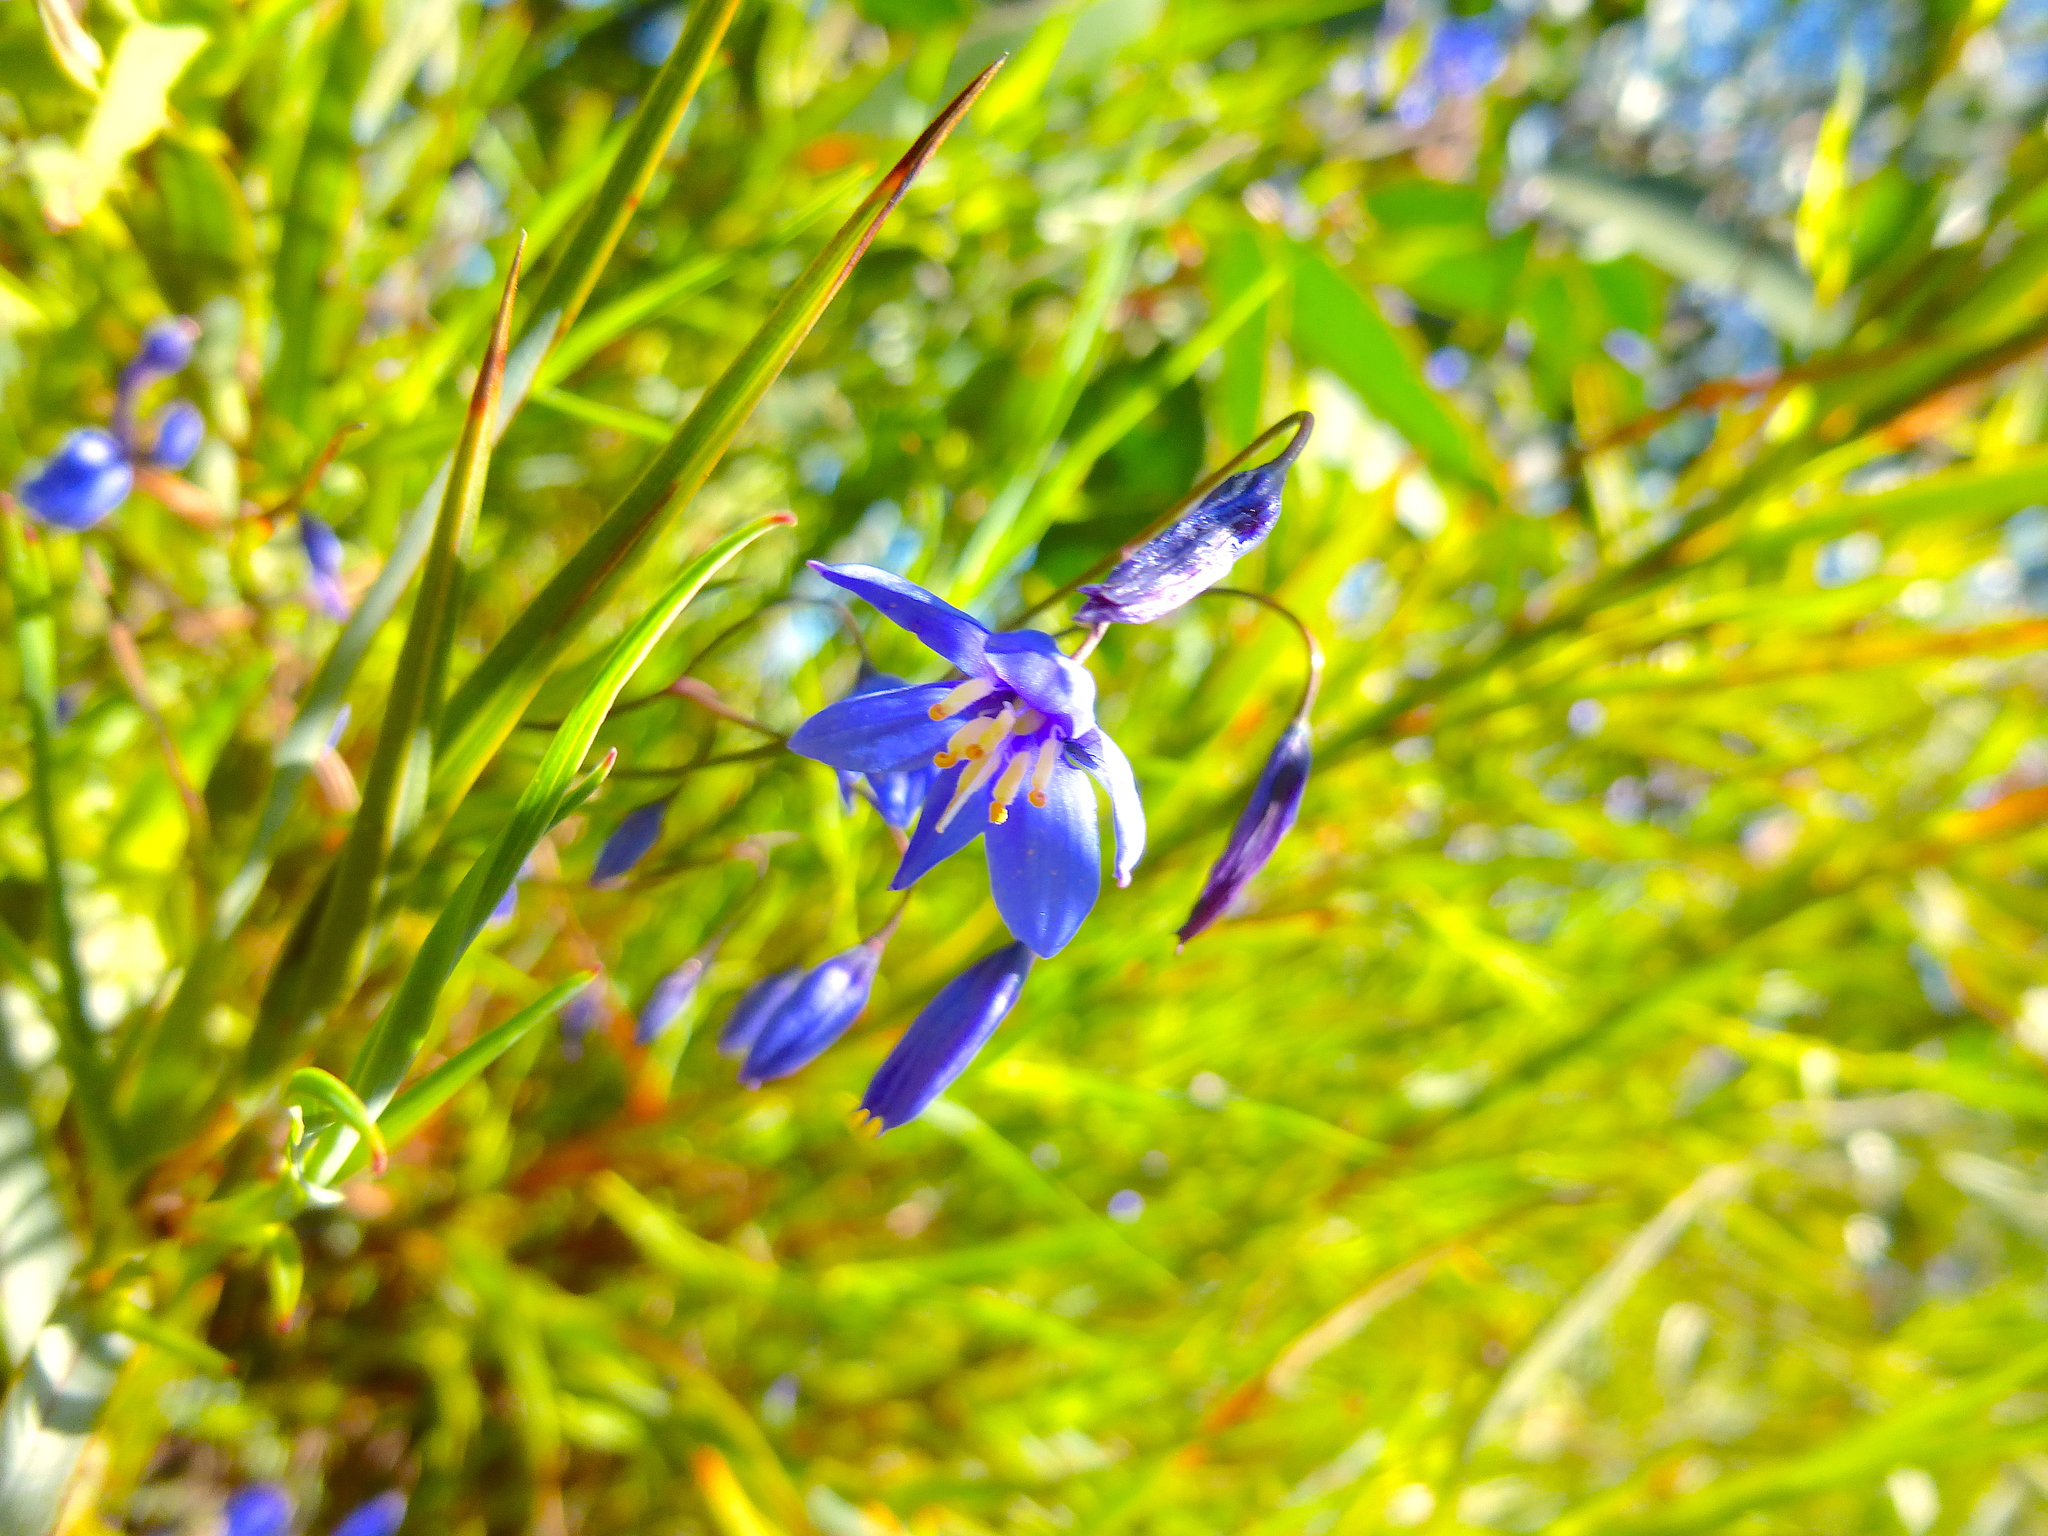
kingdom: Plantae
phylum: Tracheophyta
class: Liliopsida
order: Asparagales
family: Asphodelaceae
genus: Stypandra
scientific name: Stypandra glauca
